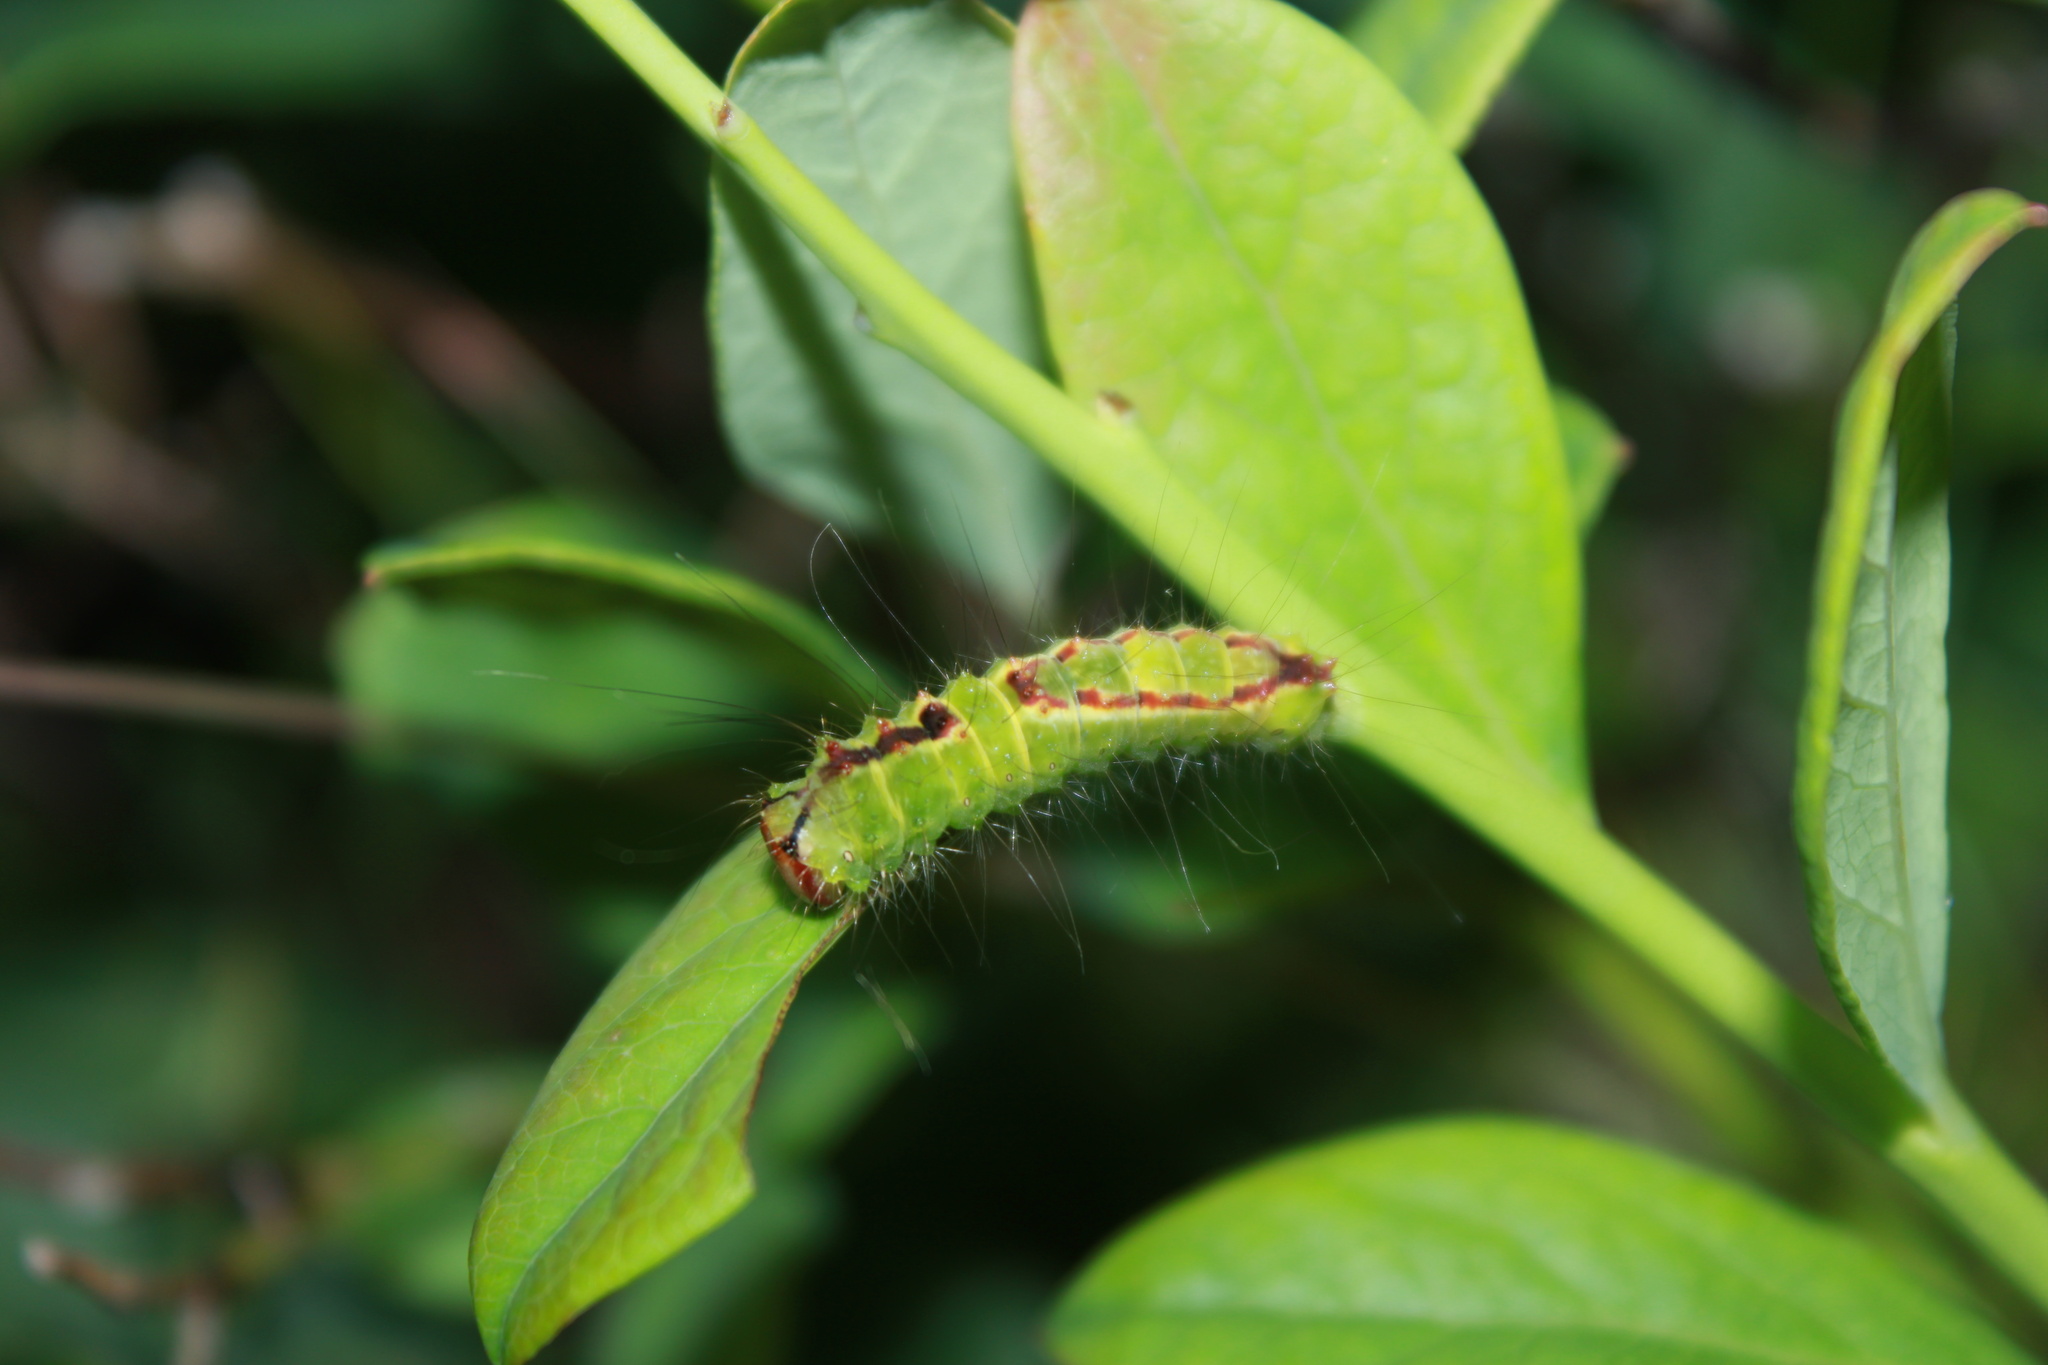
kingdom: Animalia
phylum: Arthropoda
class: Insecta
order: Lepidoptera
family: Noctuidae
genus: Acronicta
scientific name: Acronicta tritona
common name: Triton dagger
